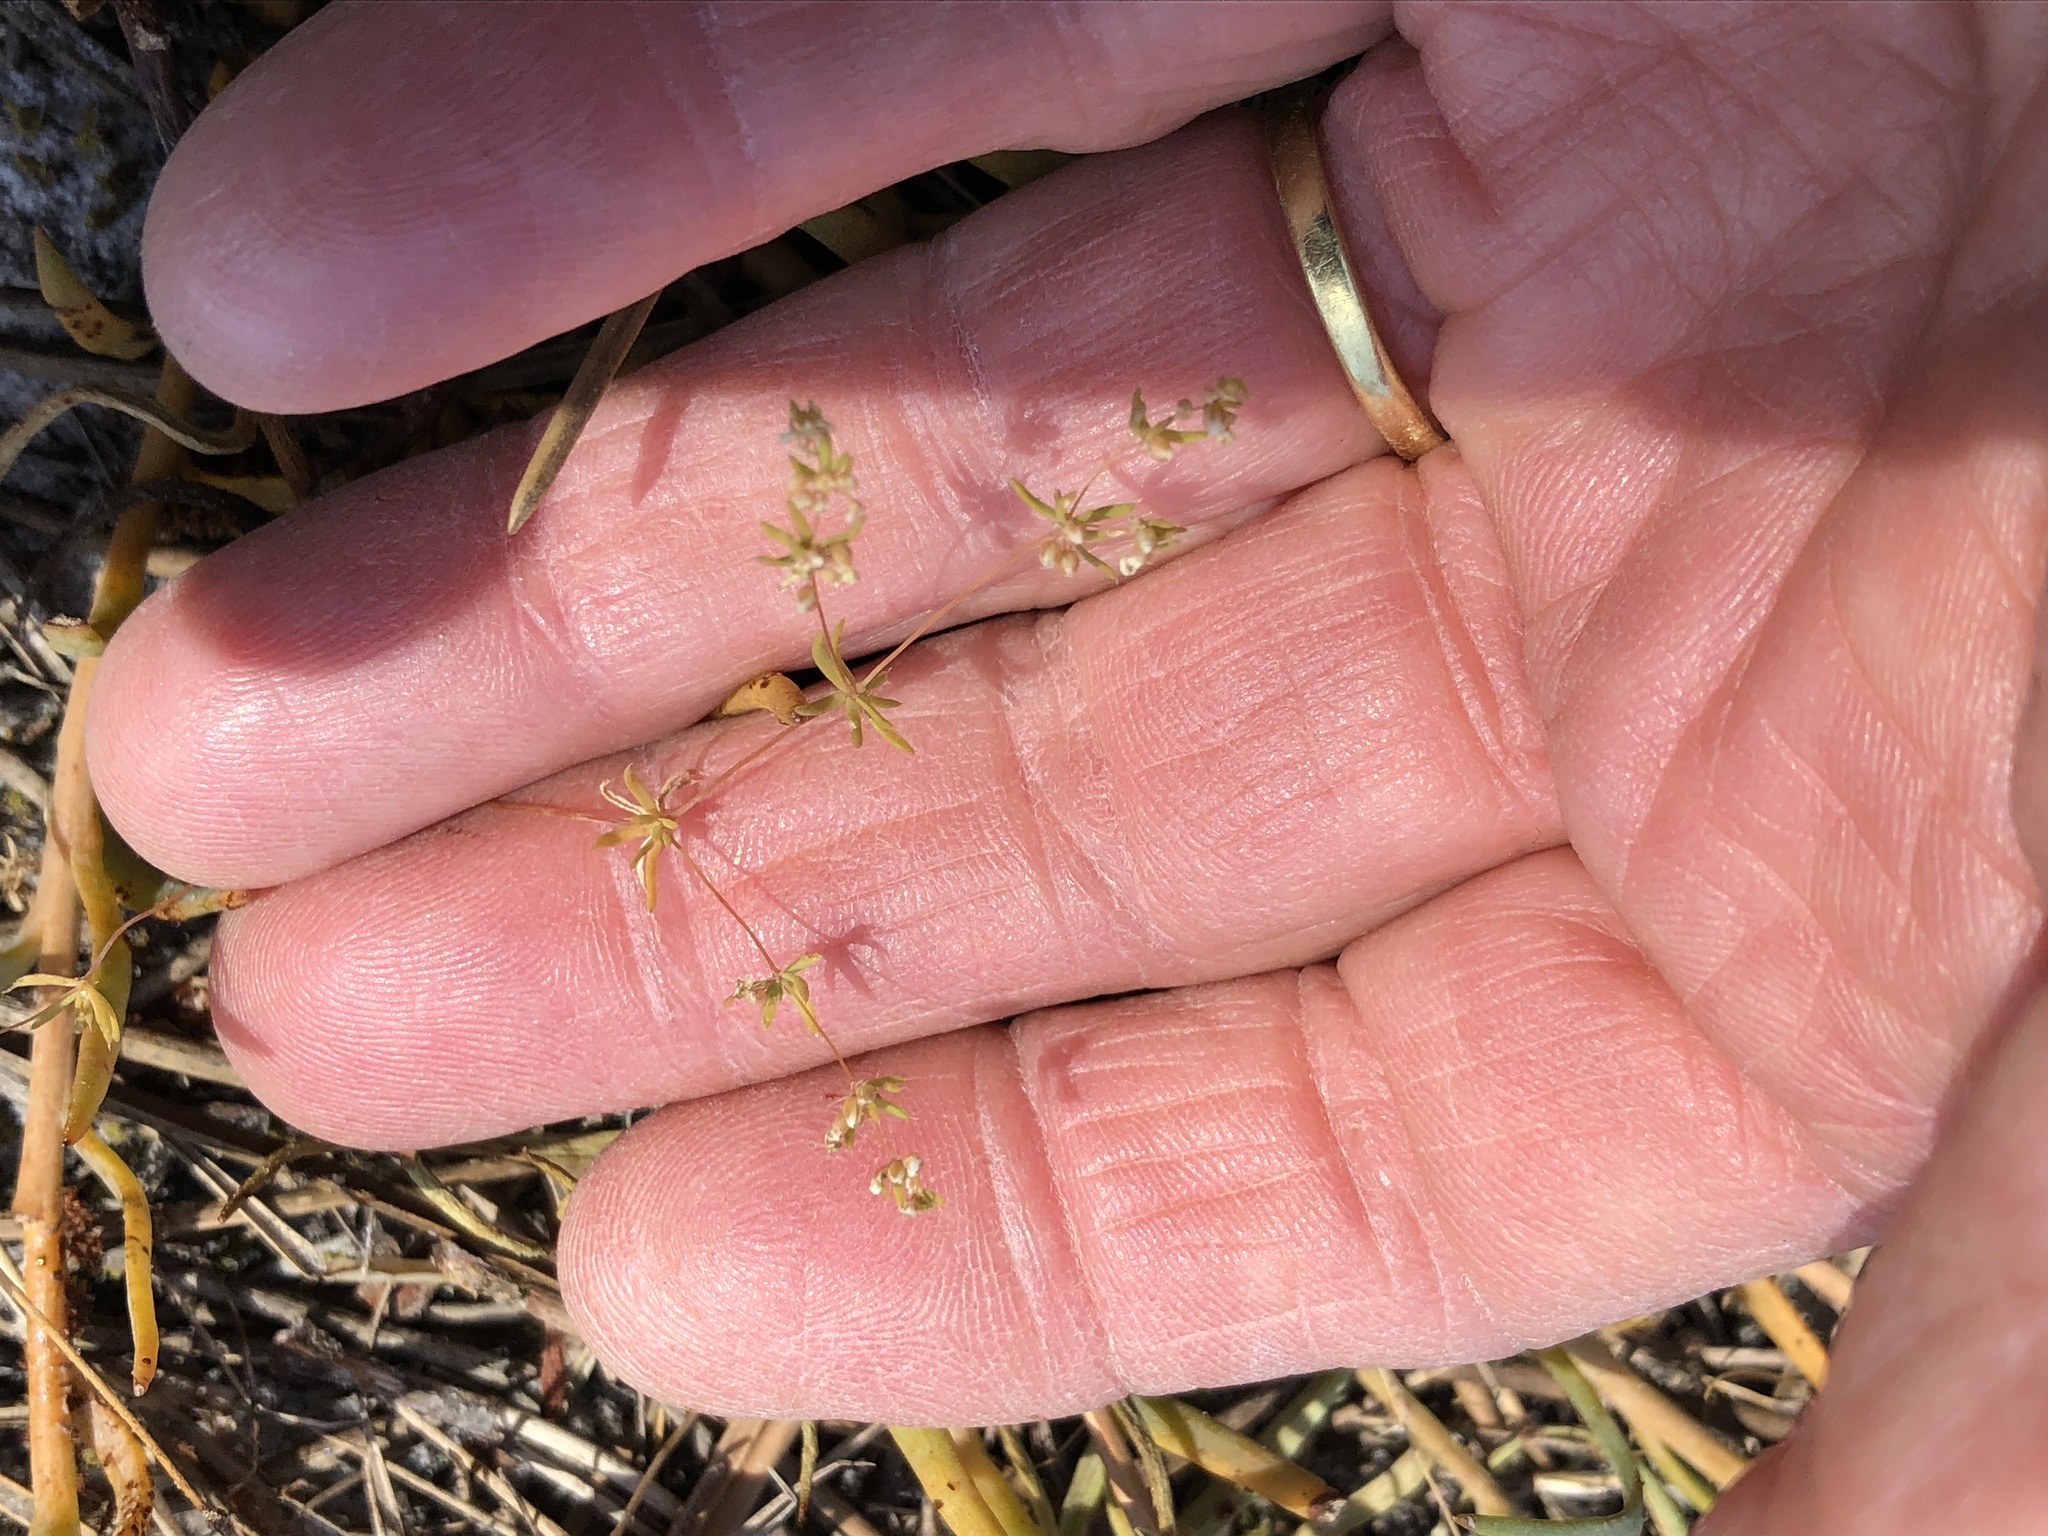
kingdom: Plantae
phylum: Tracheophyta
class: Magnoliopsida
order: Caryophyllales
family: Molluginaceae
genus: Adenogramma
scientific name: Adenogramma glomerata
